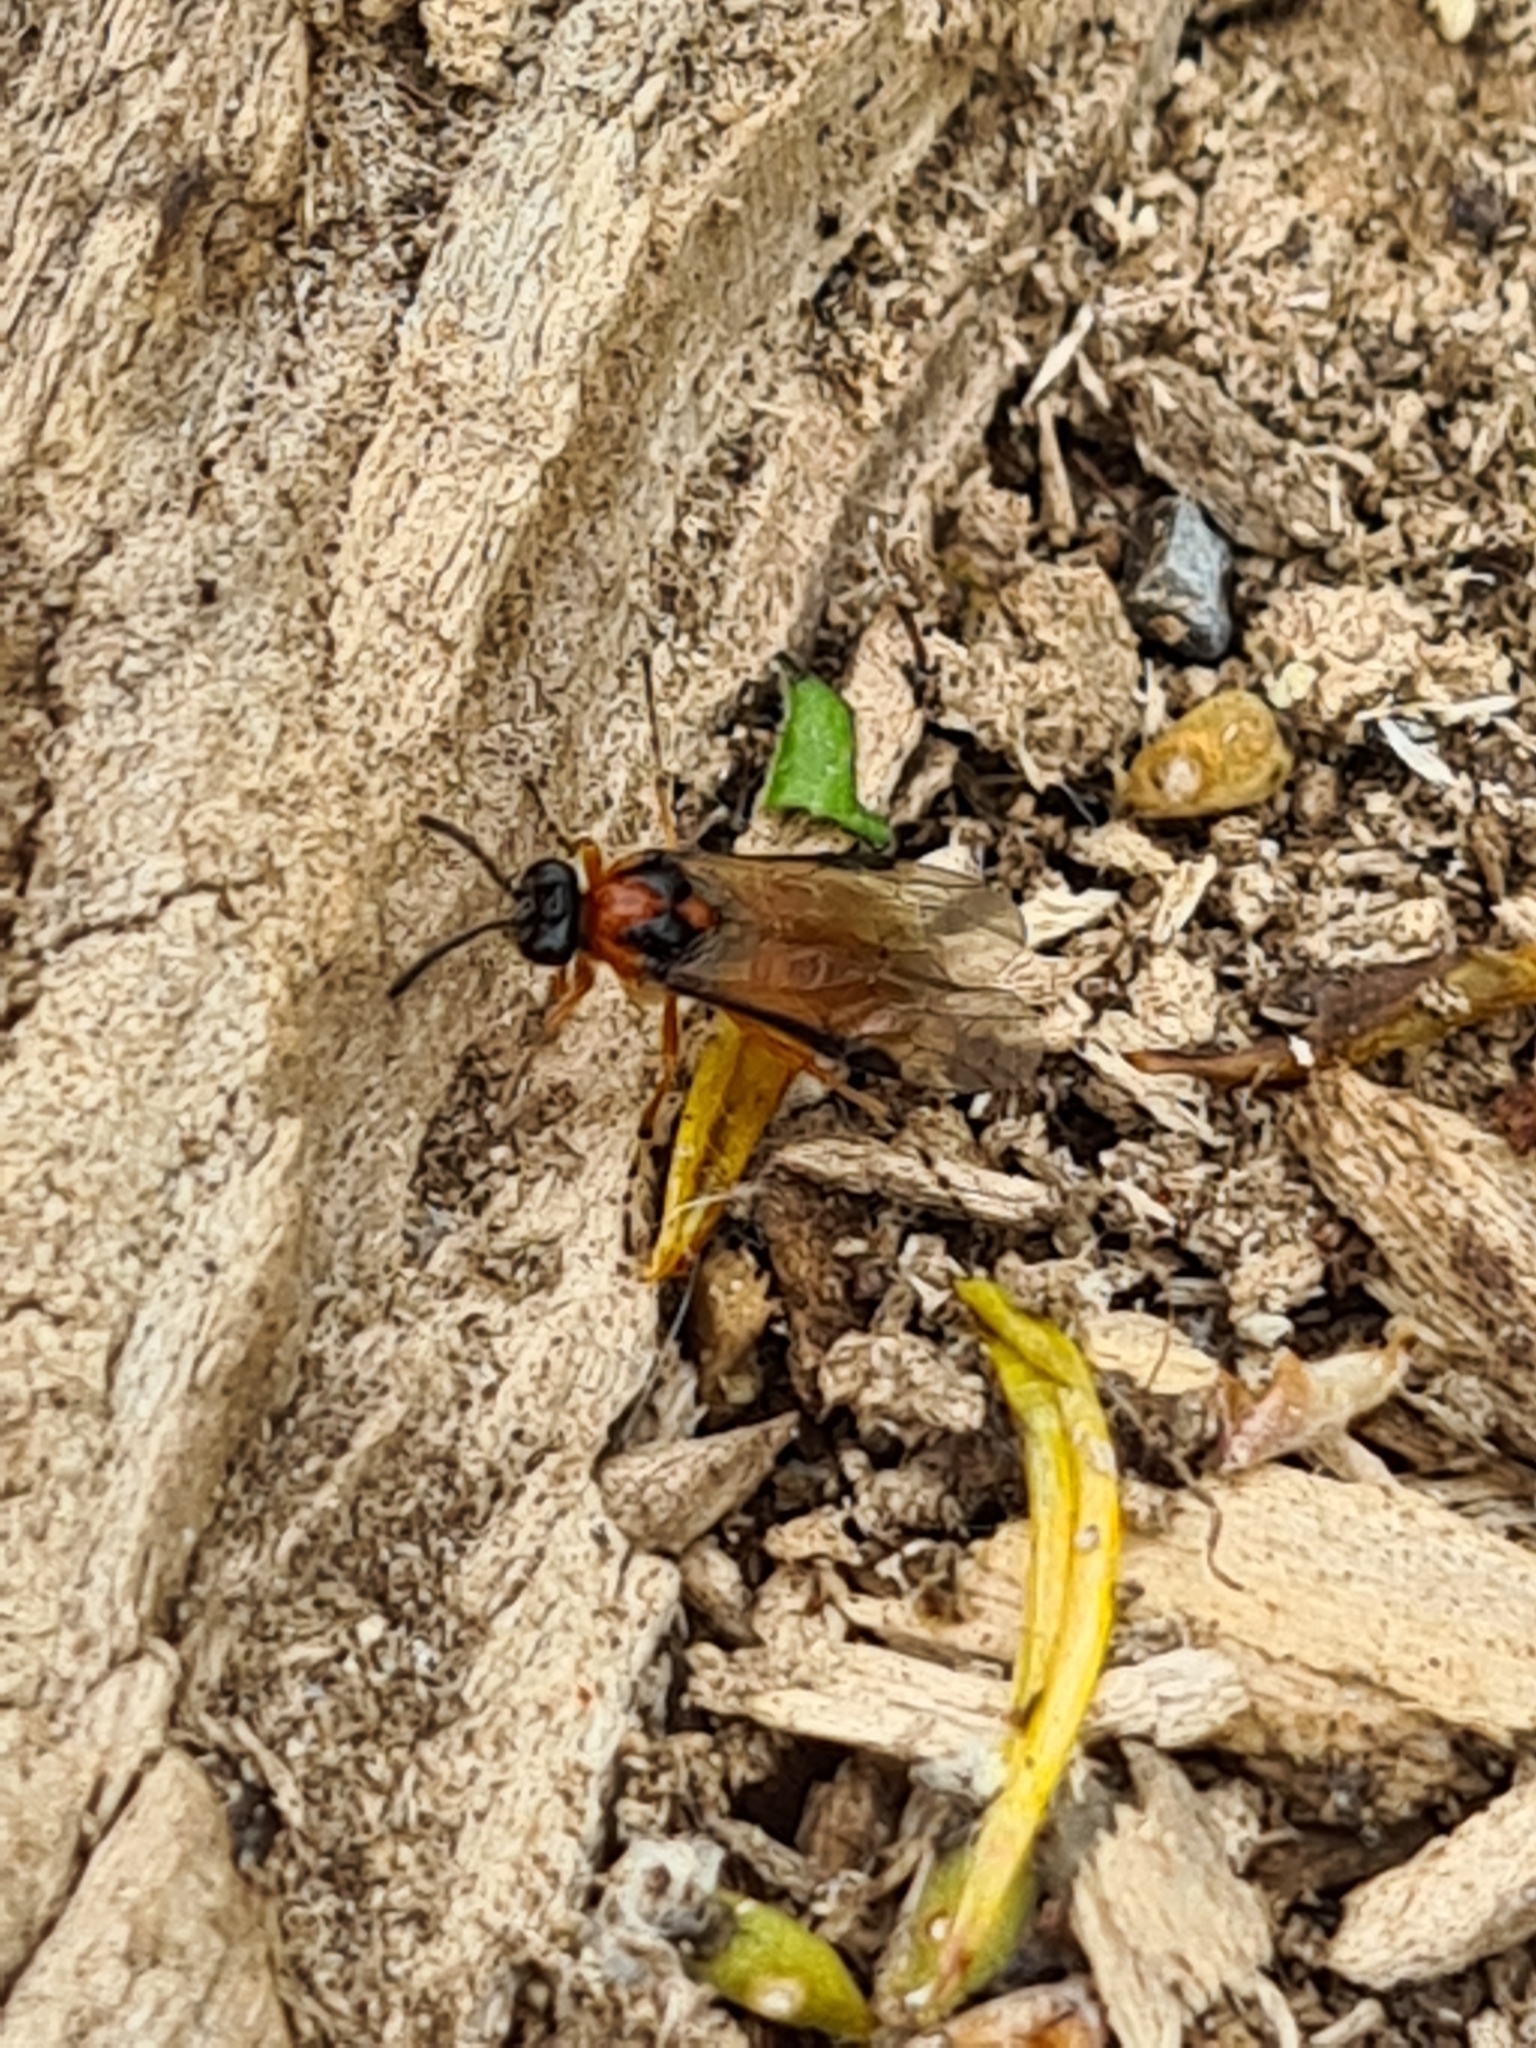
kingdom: Animalia
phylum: Arthropoda
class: Insecta
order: Hymenoptera
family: Tenthredinidae
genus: Athalia
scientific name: Athalia rosae
